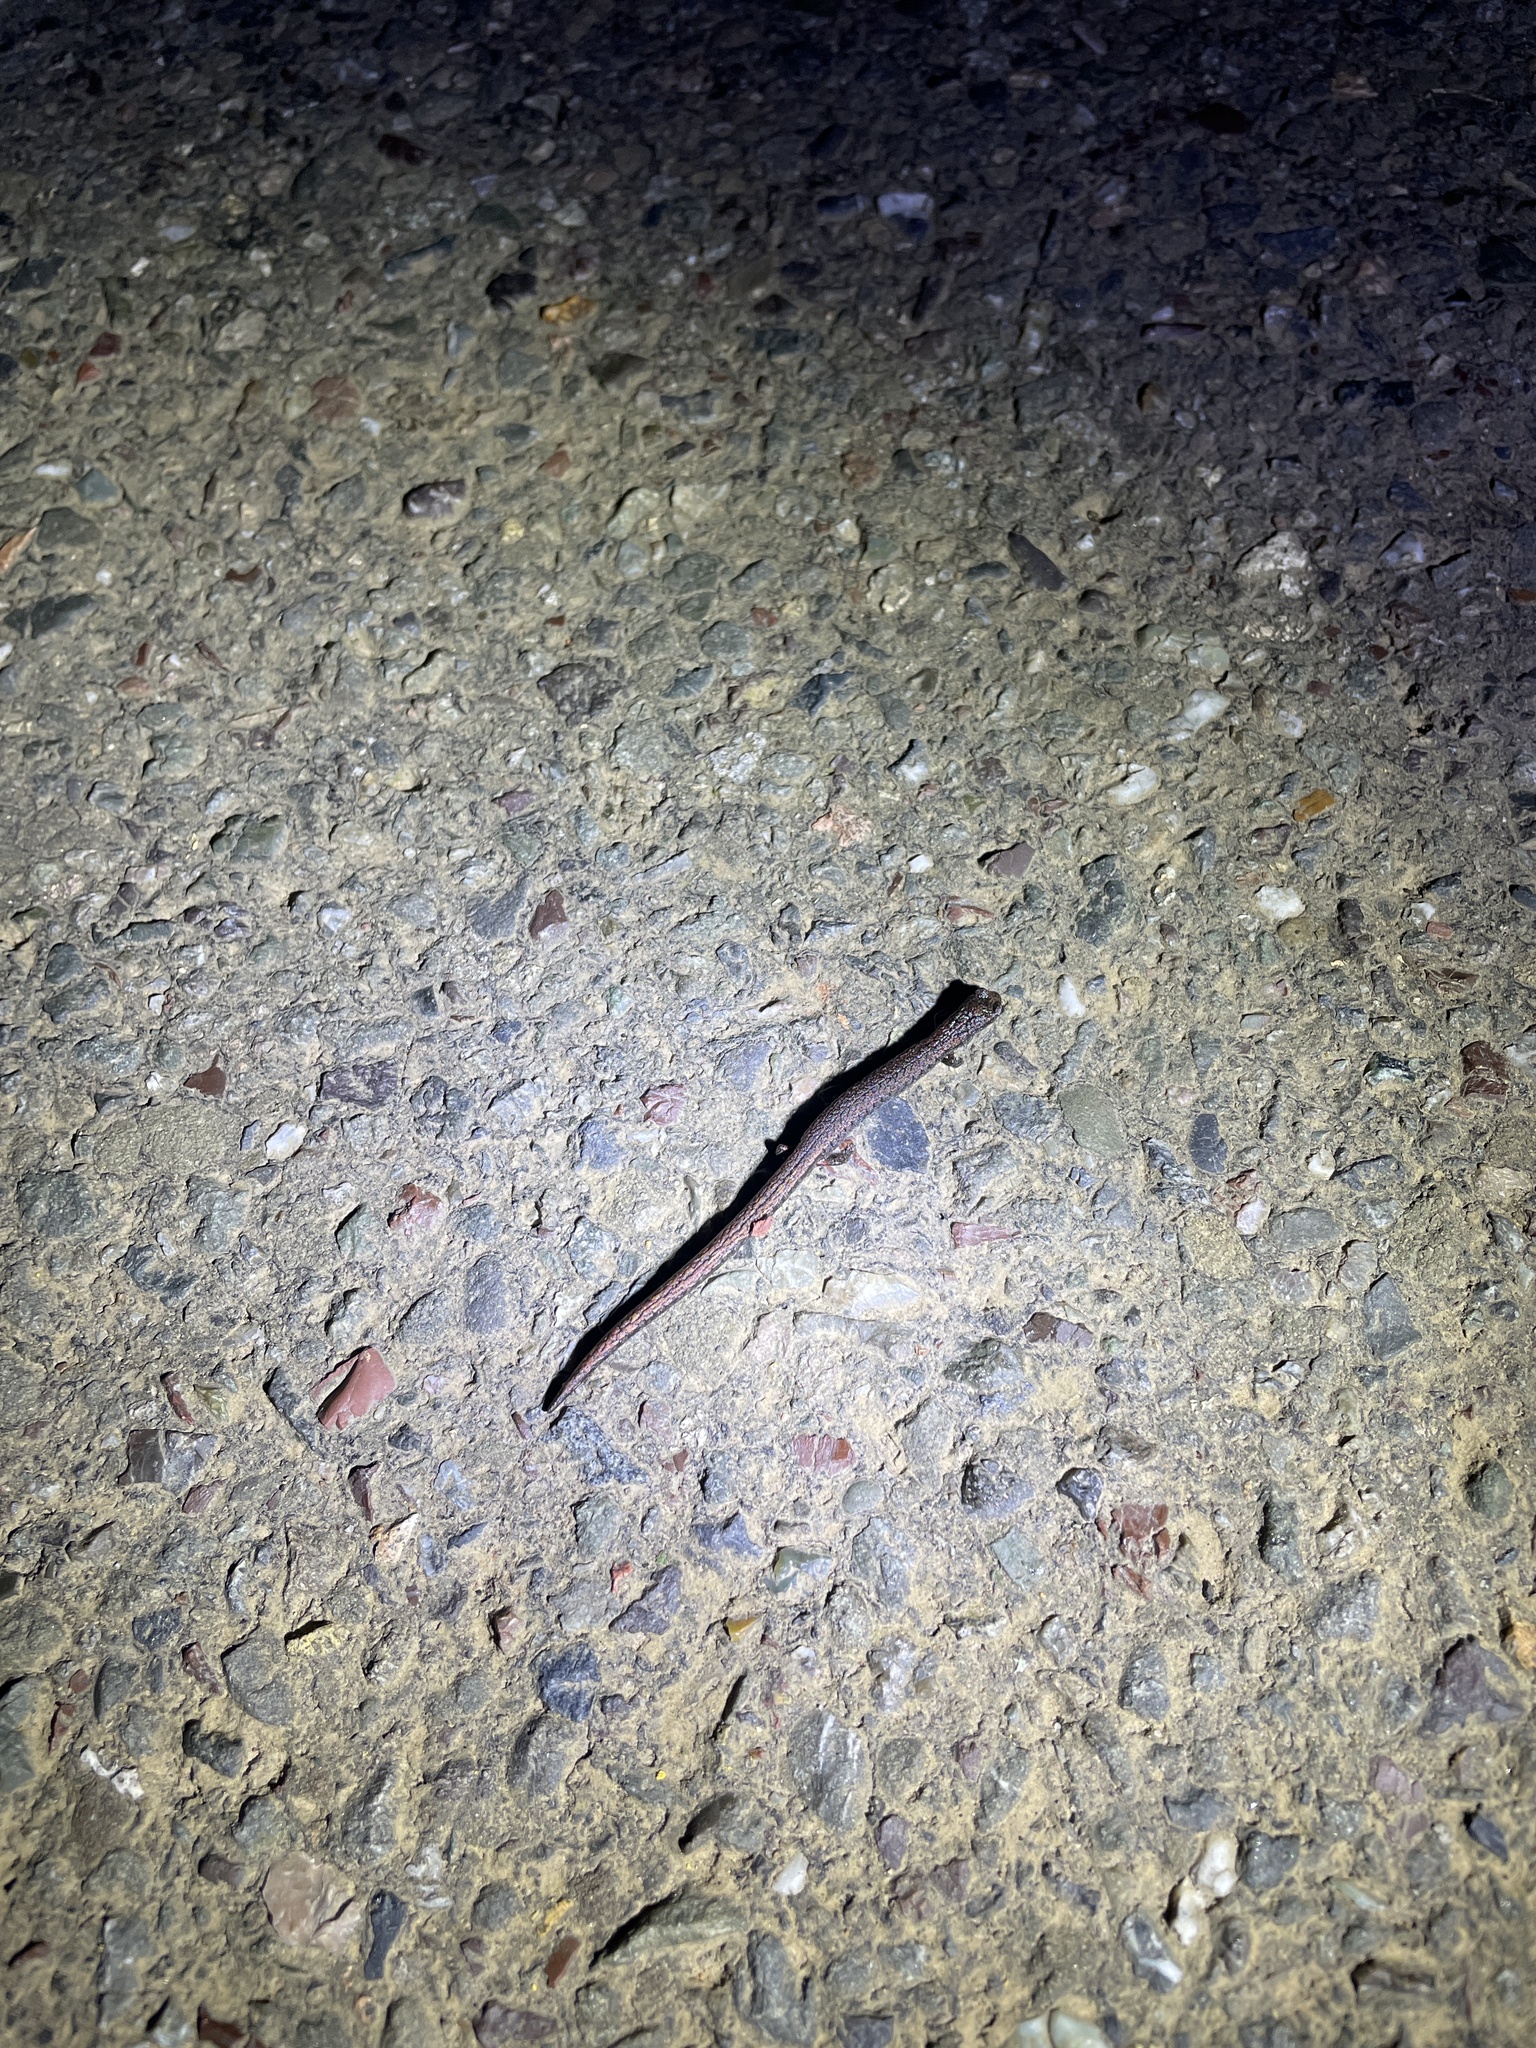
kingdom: Animalia
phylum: Chordata
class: Amphibia
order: Caudata
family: Plethodontidae
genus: Batrachoseps
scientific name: Batrachoseps attenuatus
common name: California slender salamander
